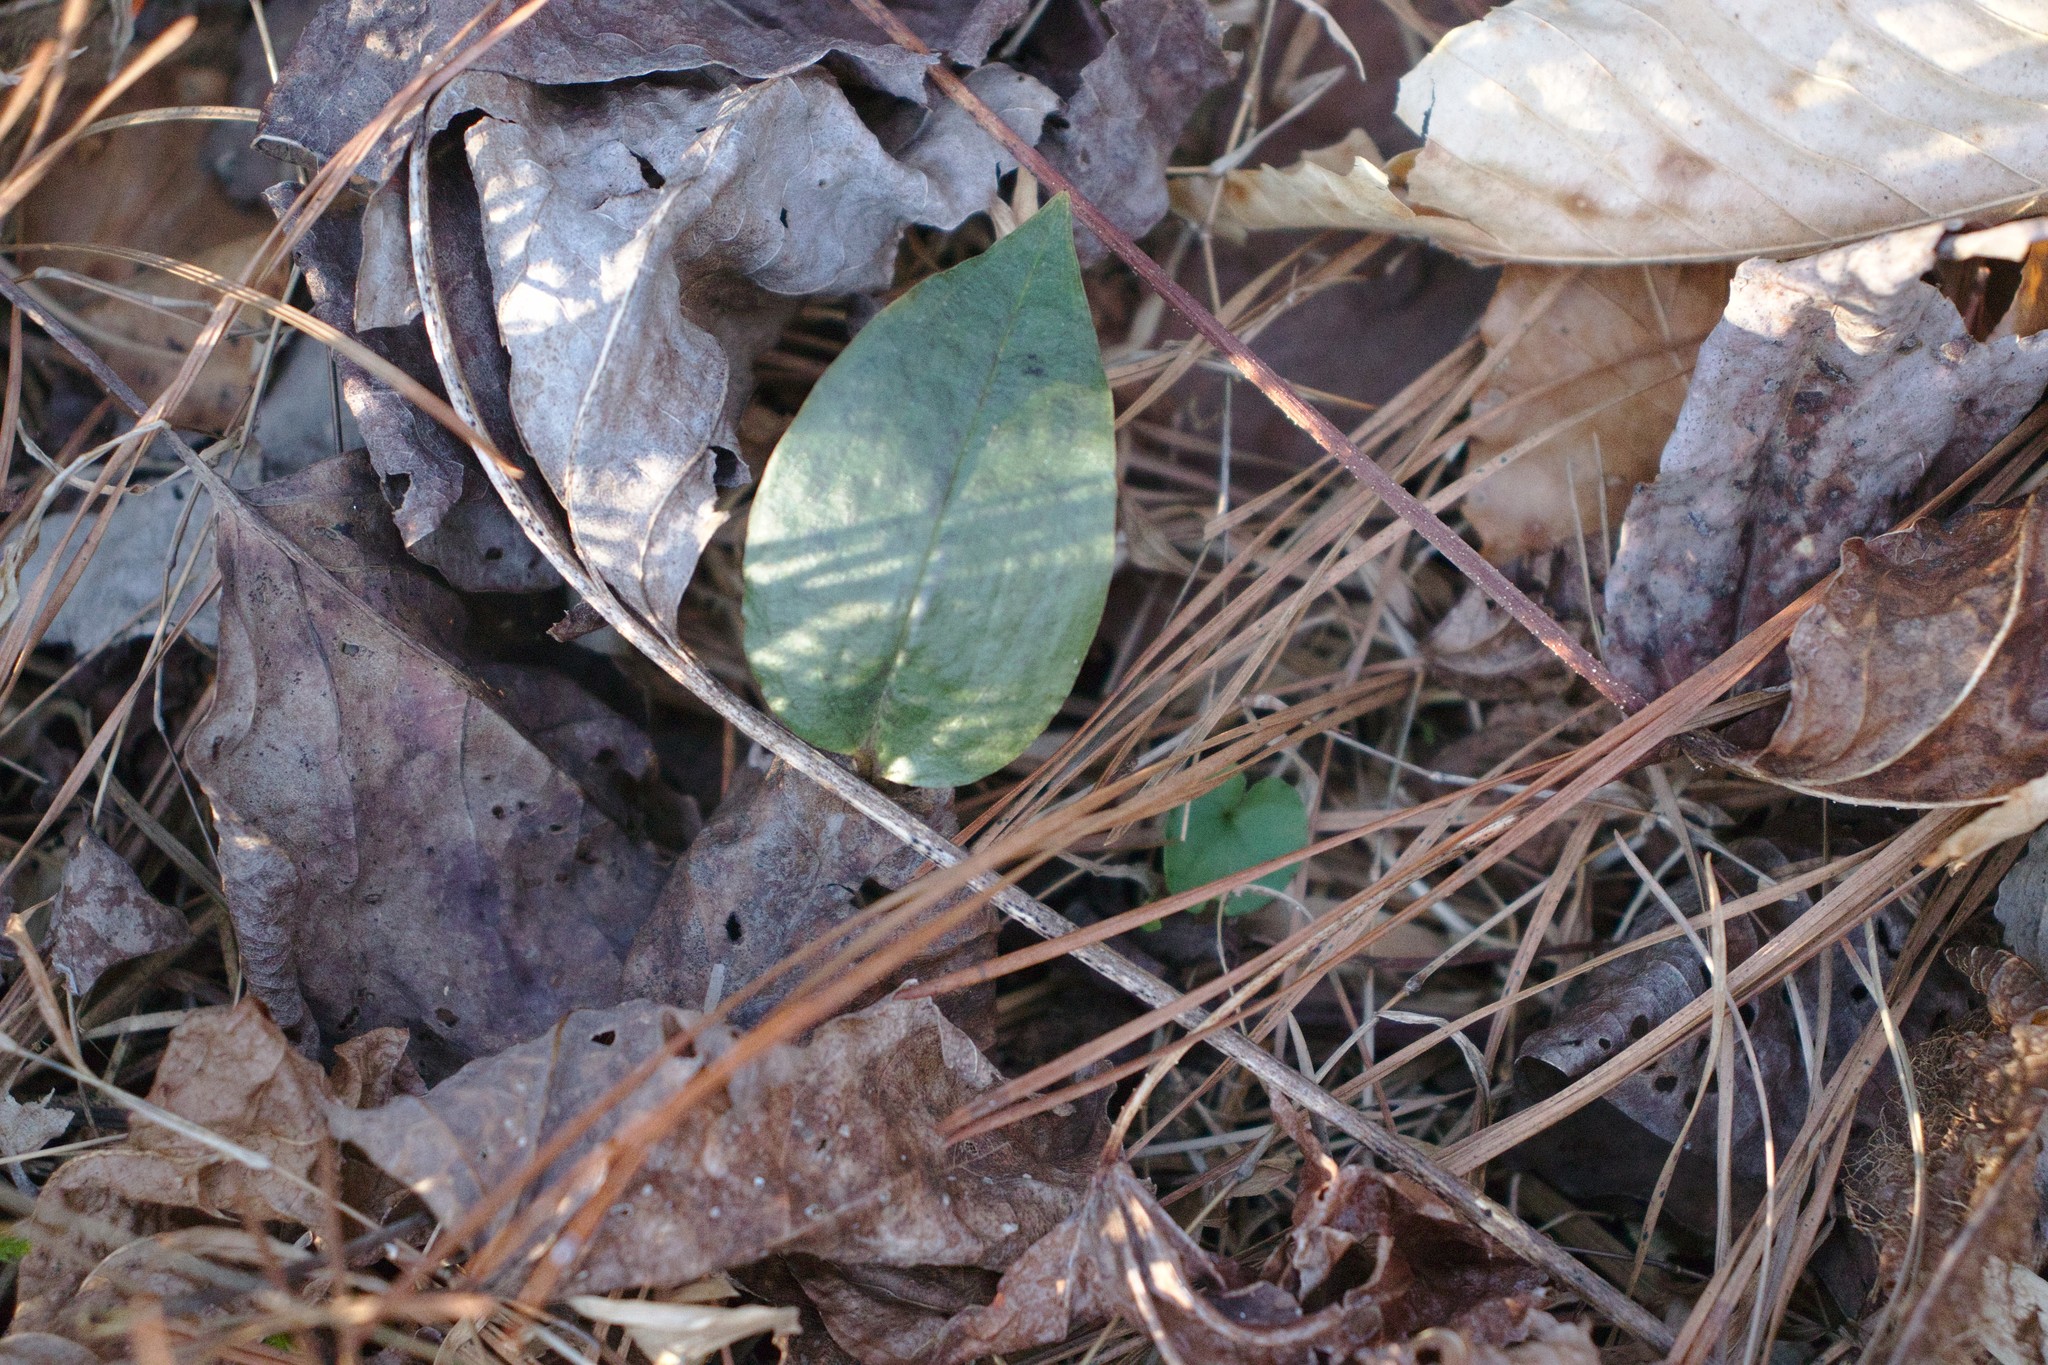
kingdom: Plantae
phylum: Tracheophyta
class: Liliopsida
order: Asparagales
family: Orchidaceae
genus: Tipularia
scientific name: Tipularia discolor
